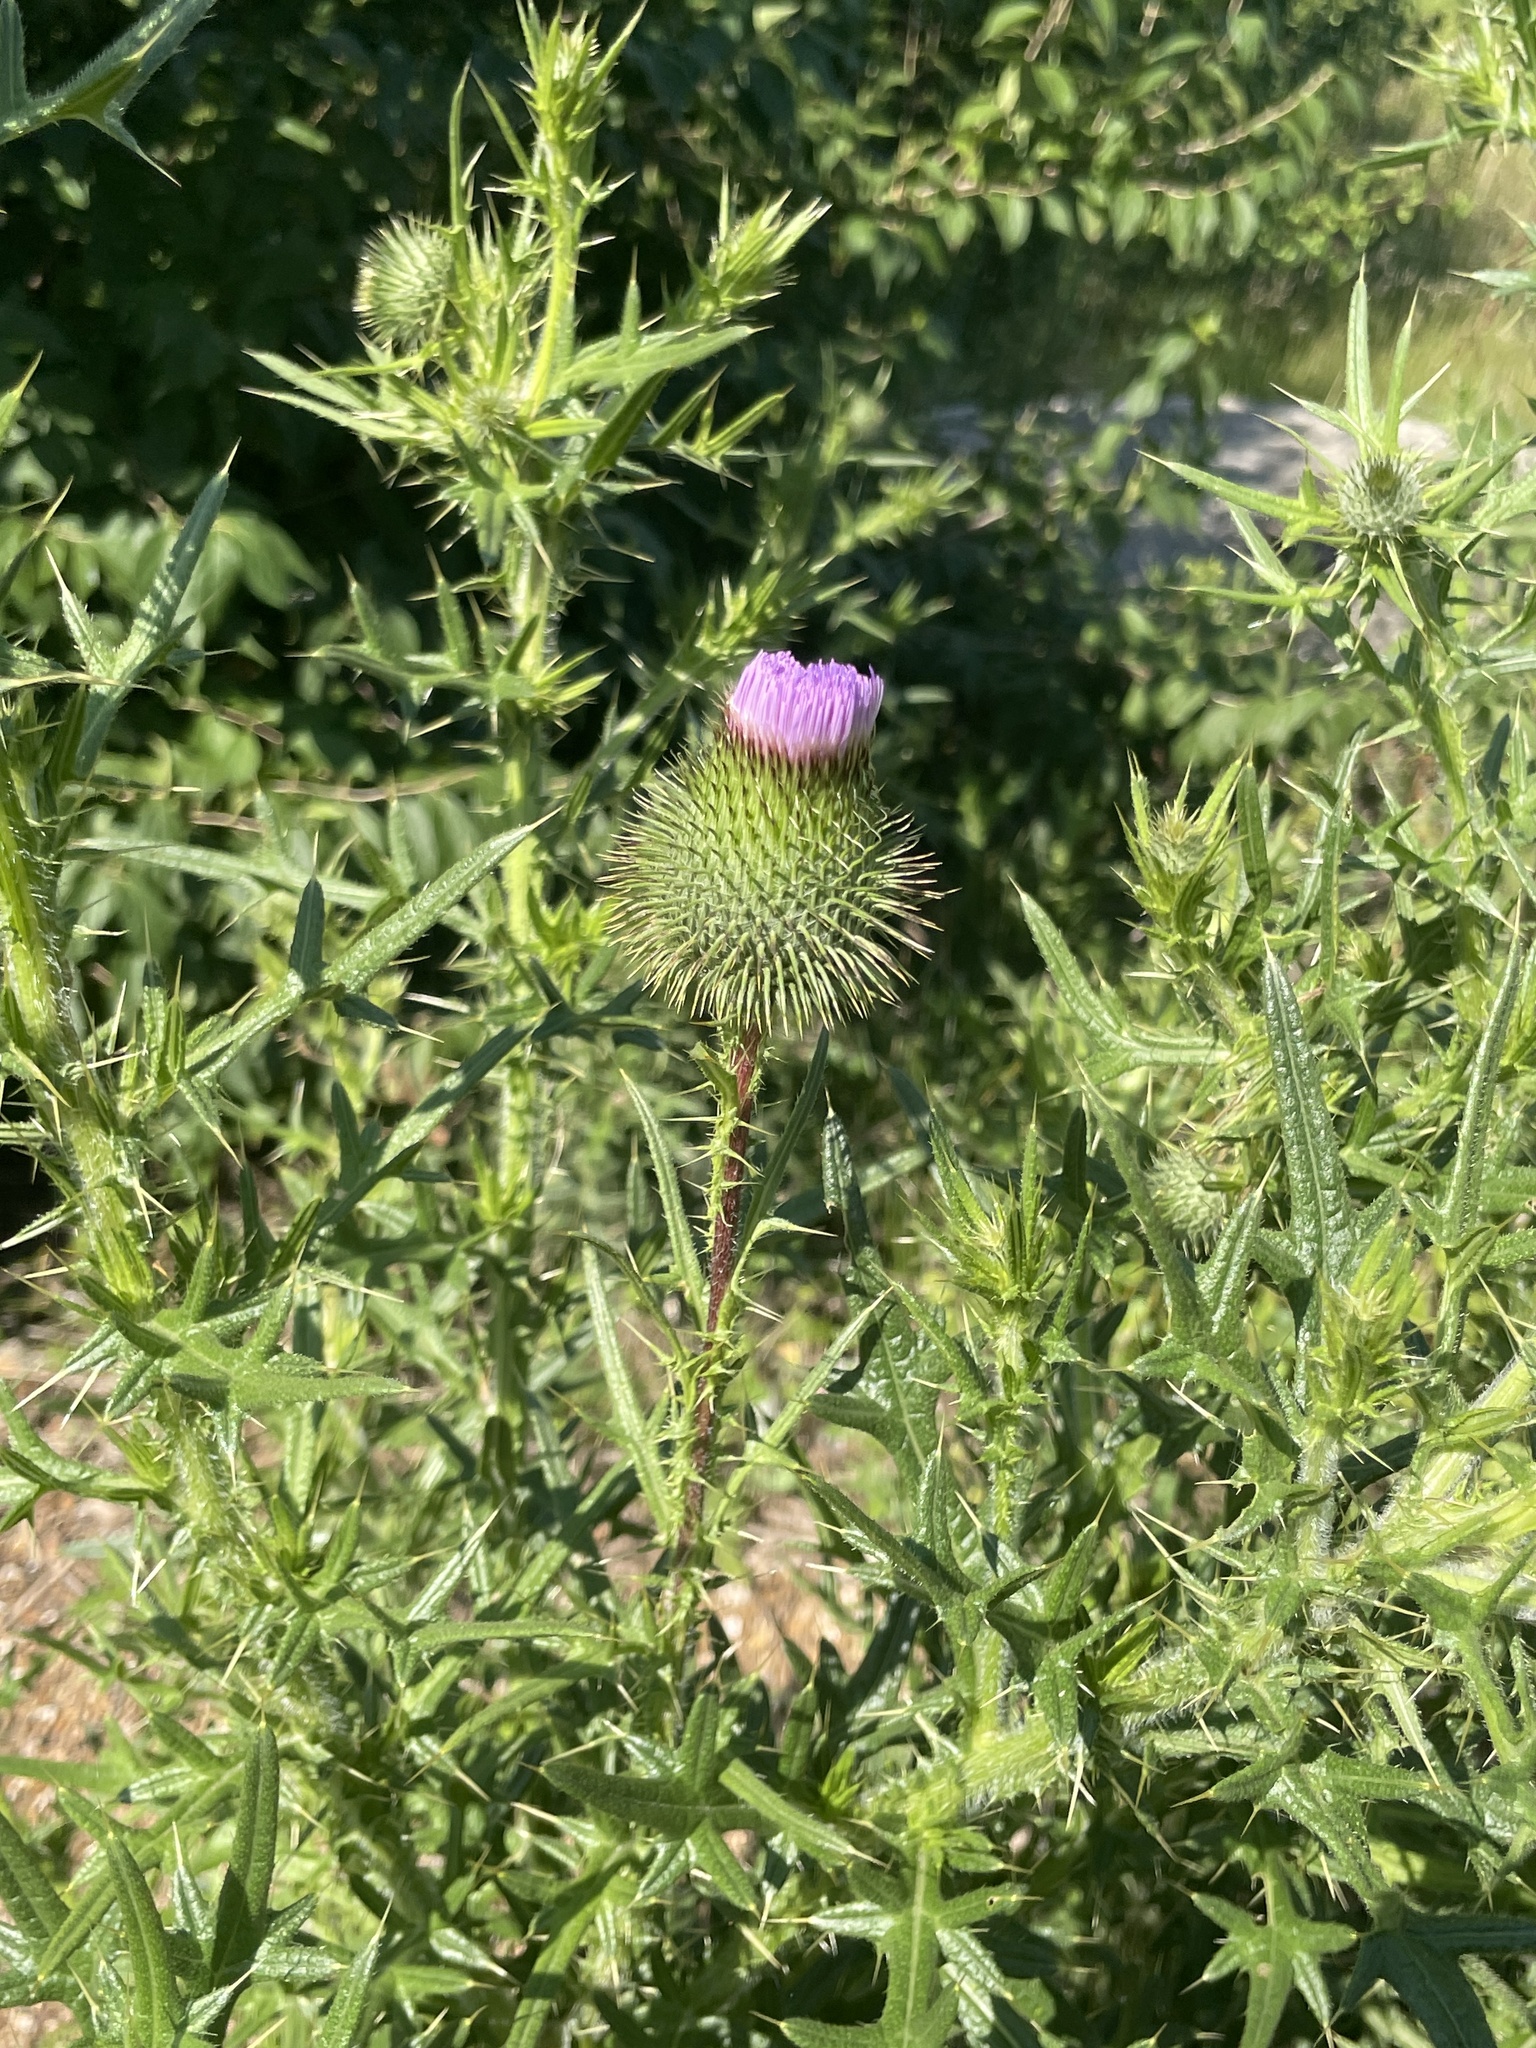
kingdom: Plantae
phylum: Tracheophyta
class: Magnoliopsida
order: Asterales
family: Asteraceae
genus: Cirsium
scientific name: Cirsium vulgare
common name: Bull thistle
